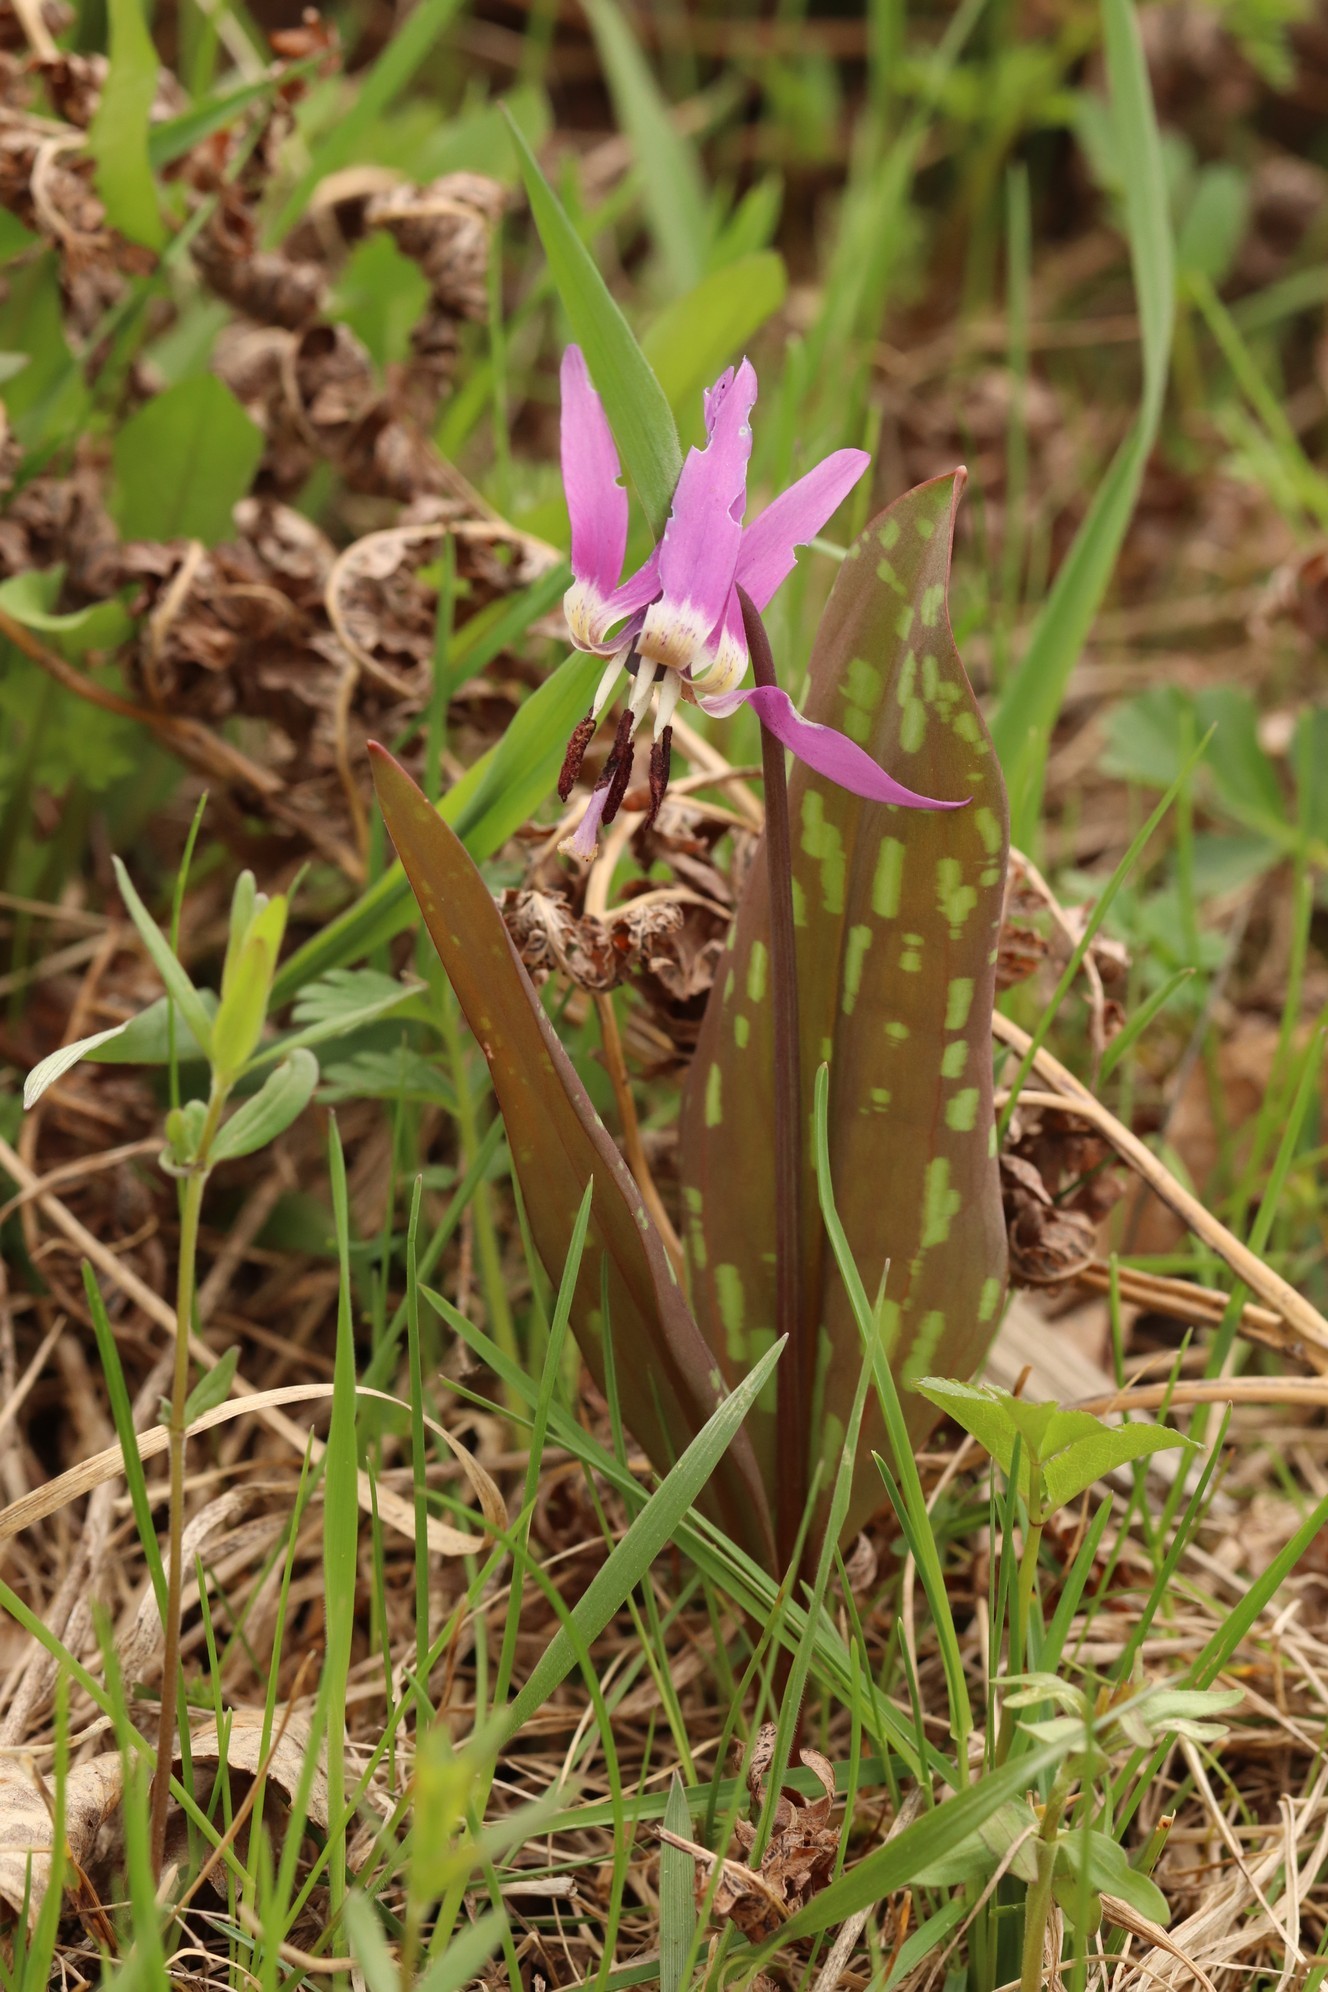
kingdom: Plantae
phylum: Tracheophyta
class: Liliopsida
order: Liliales
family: Liliaceae
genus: Erythronium
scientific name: Erythronium sulevii
